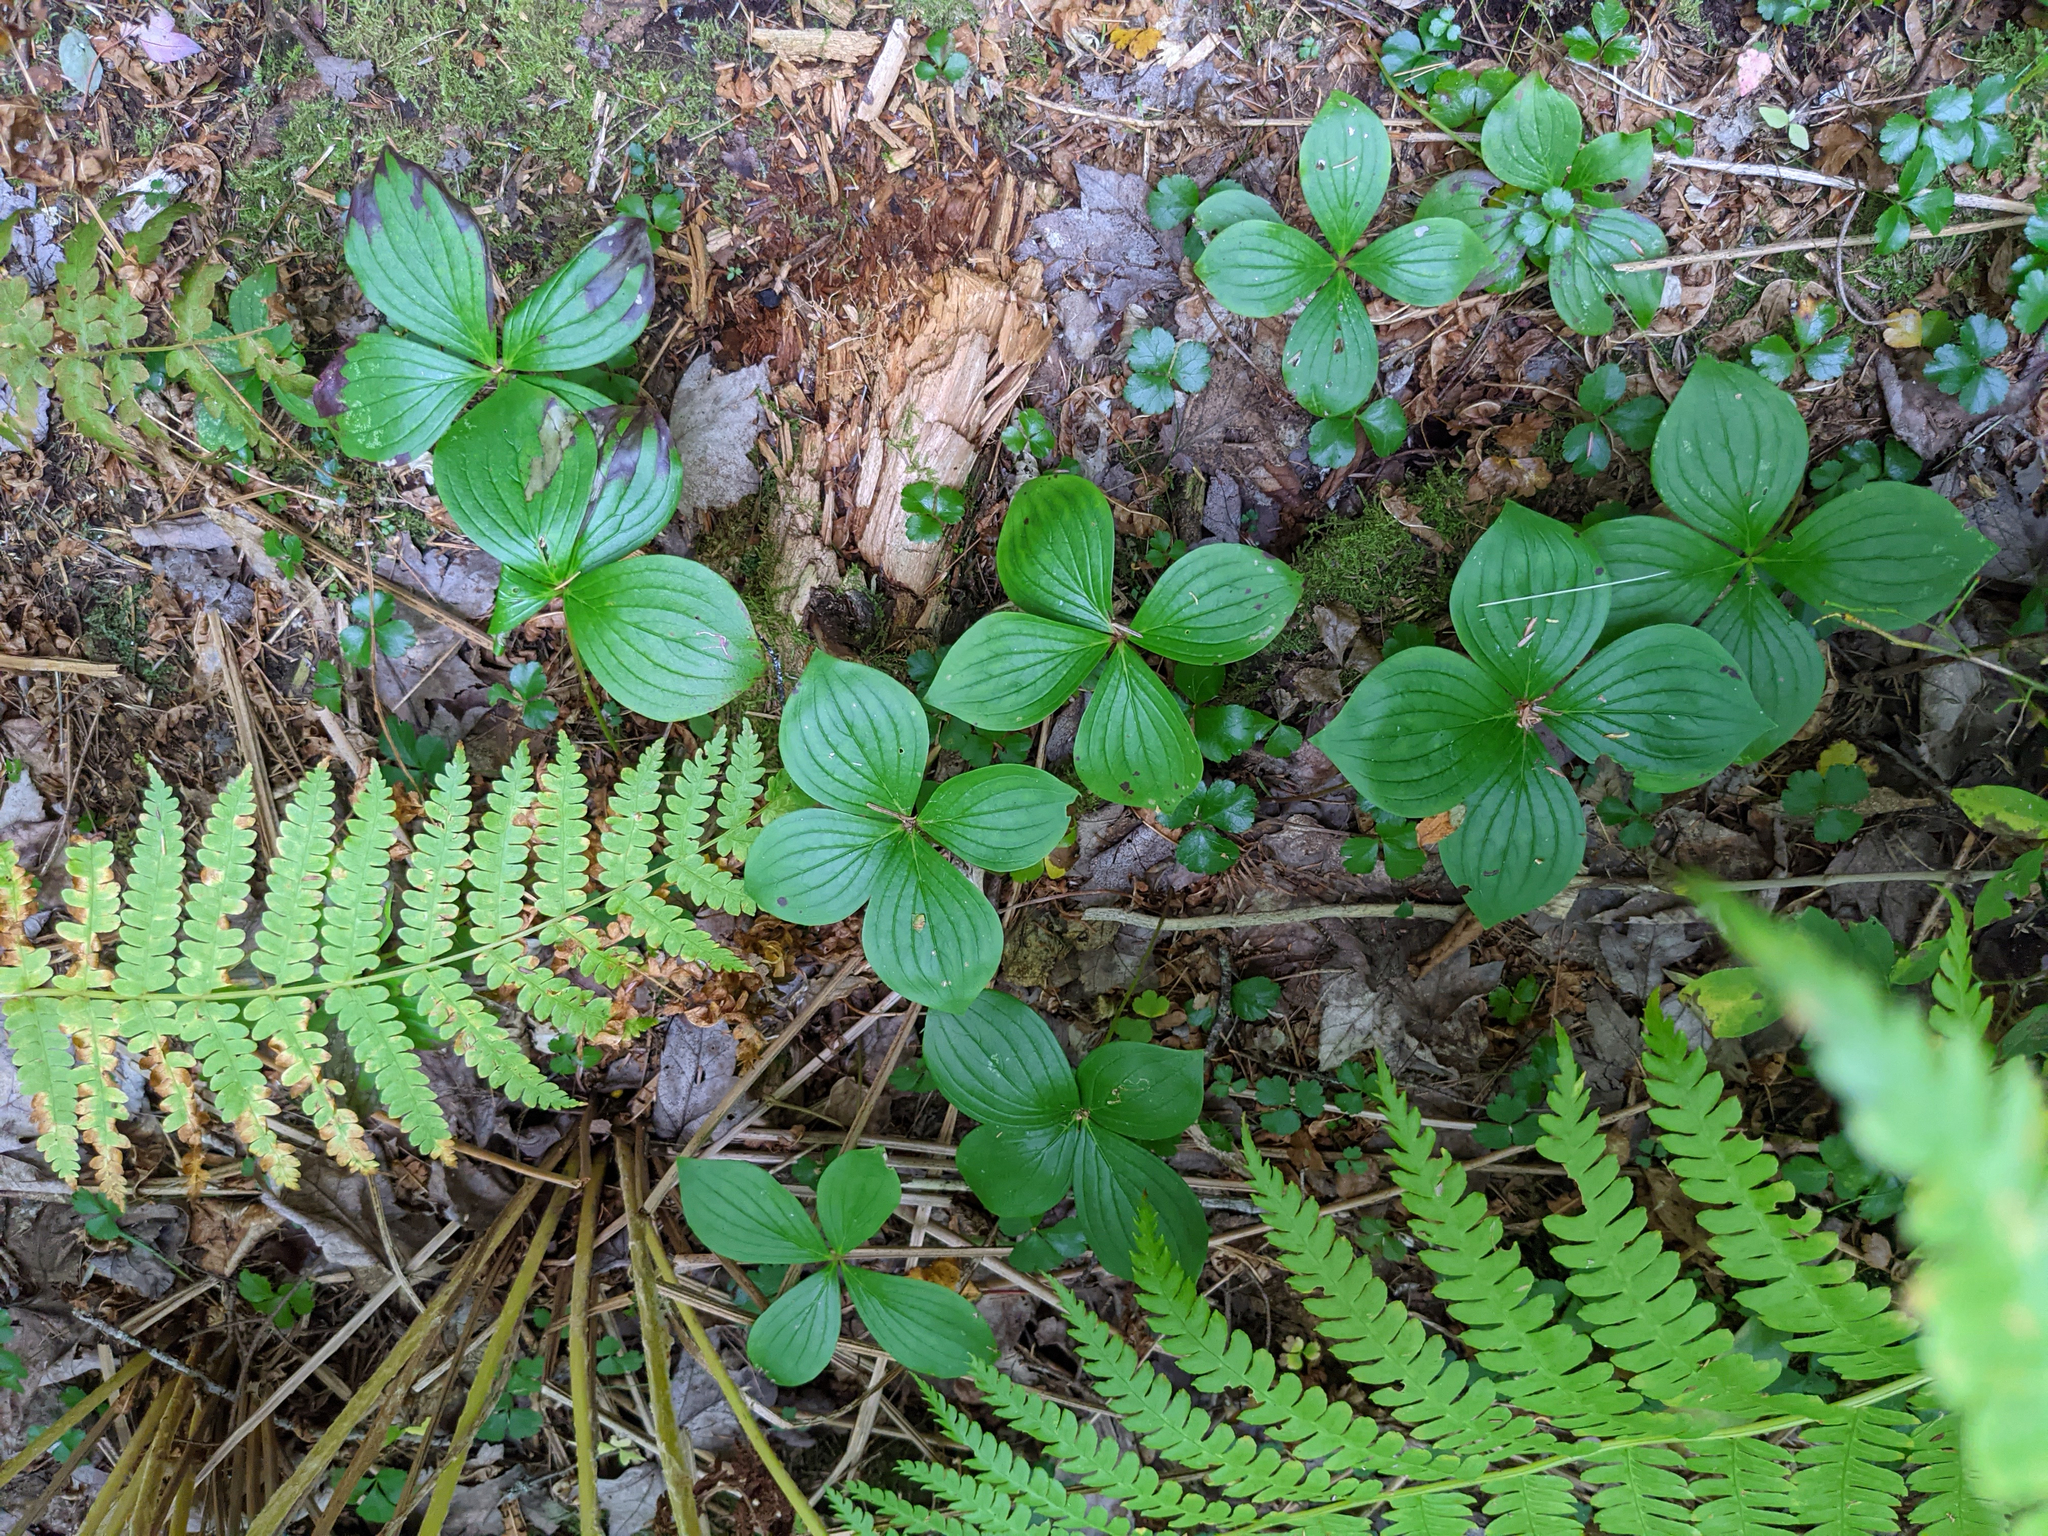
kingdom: Plantae
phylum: Tracheophyta
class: Magnoliopsida
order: Cornales
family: Cornaceae
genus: Cornus
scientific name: Cornus canadensis
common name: Creeping dogwood
